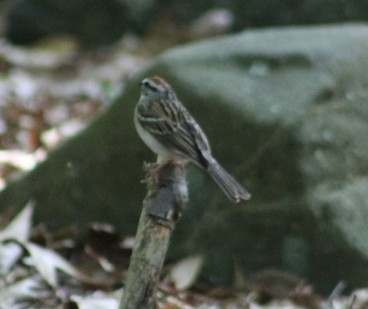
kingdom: Animalia
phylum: Chordata
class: Aves
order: Passeriformes
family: Passerellidae
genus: Spizella
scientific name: Spizella passerina
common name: Chipping sparrow
